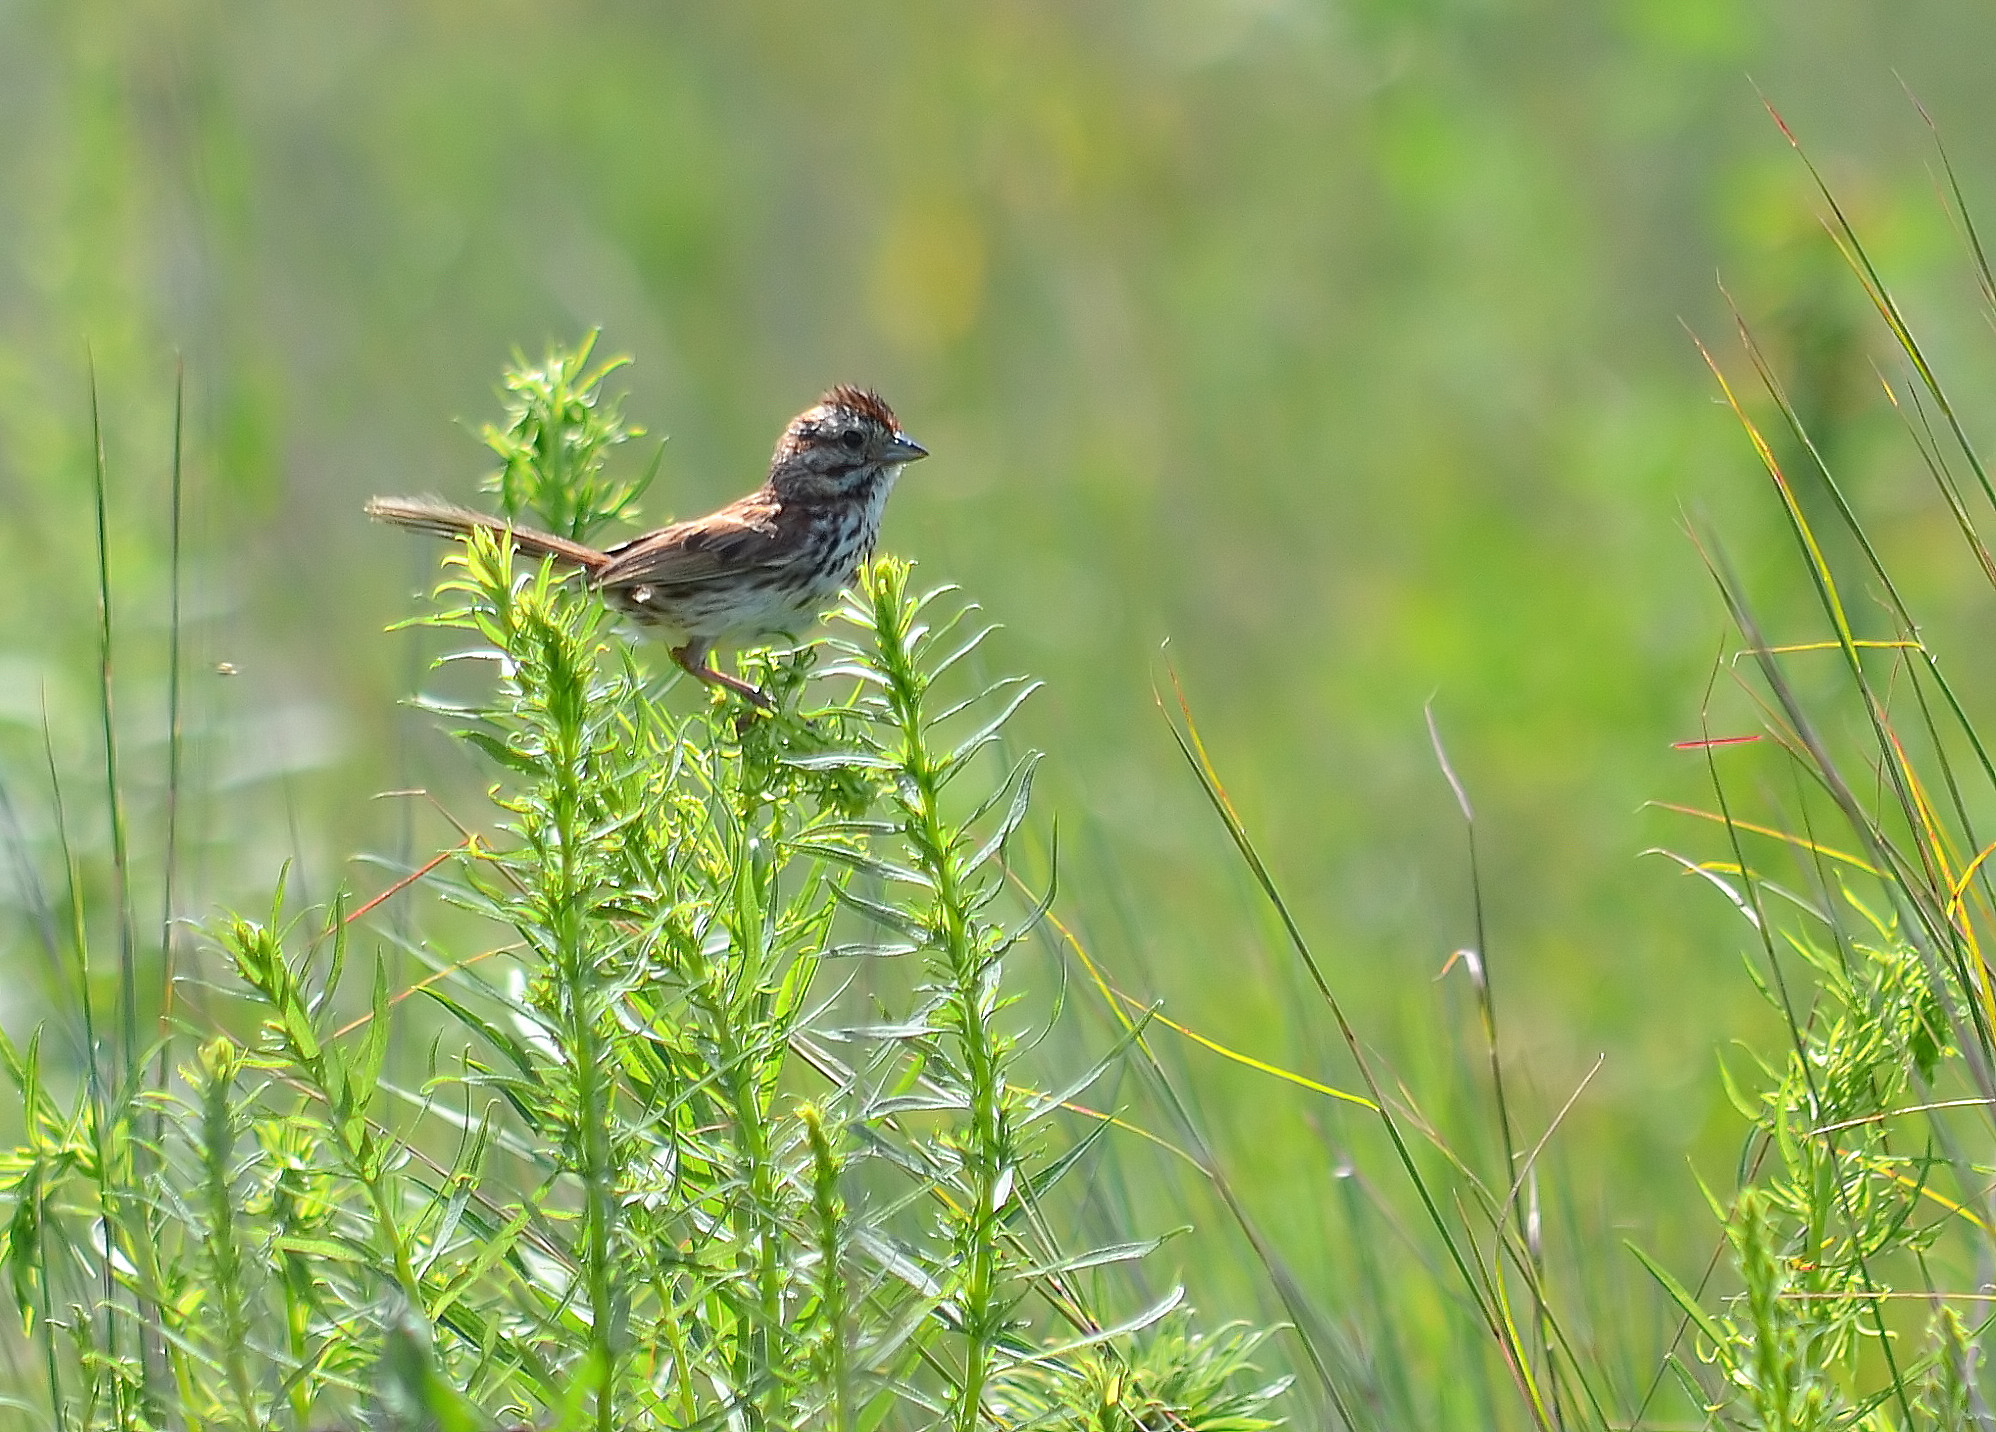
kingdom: Animalia
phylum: Chordata
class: Aves
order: Passeriformes
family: Passerellidae
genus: Melospiza
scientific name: Melospiza melodia
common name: Song sparrow
